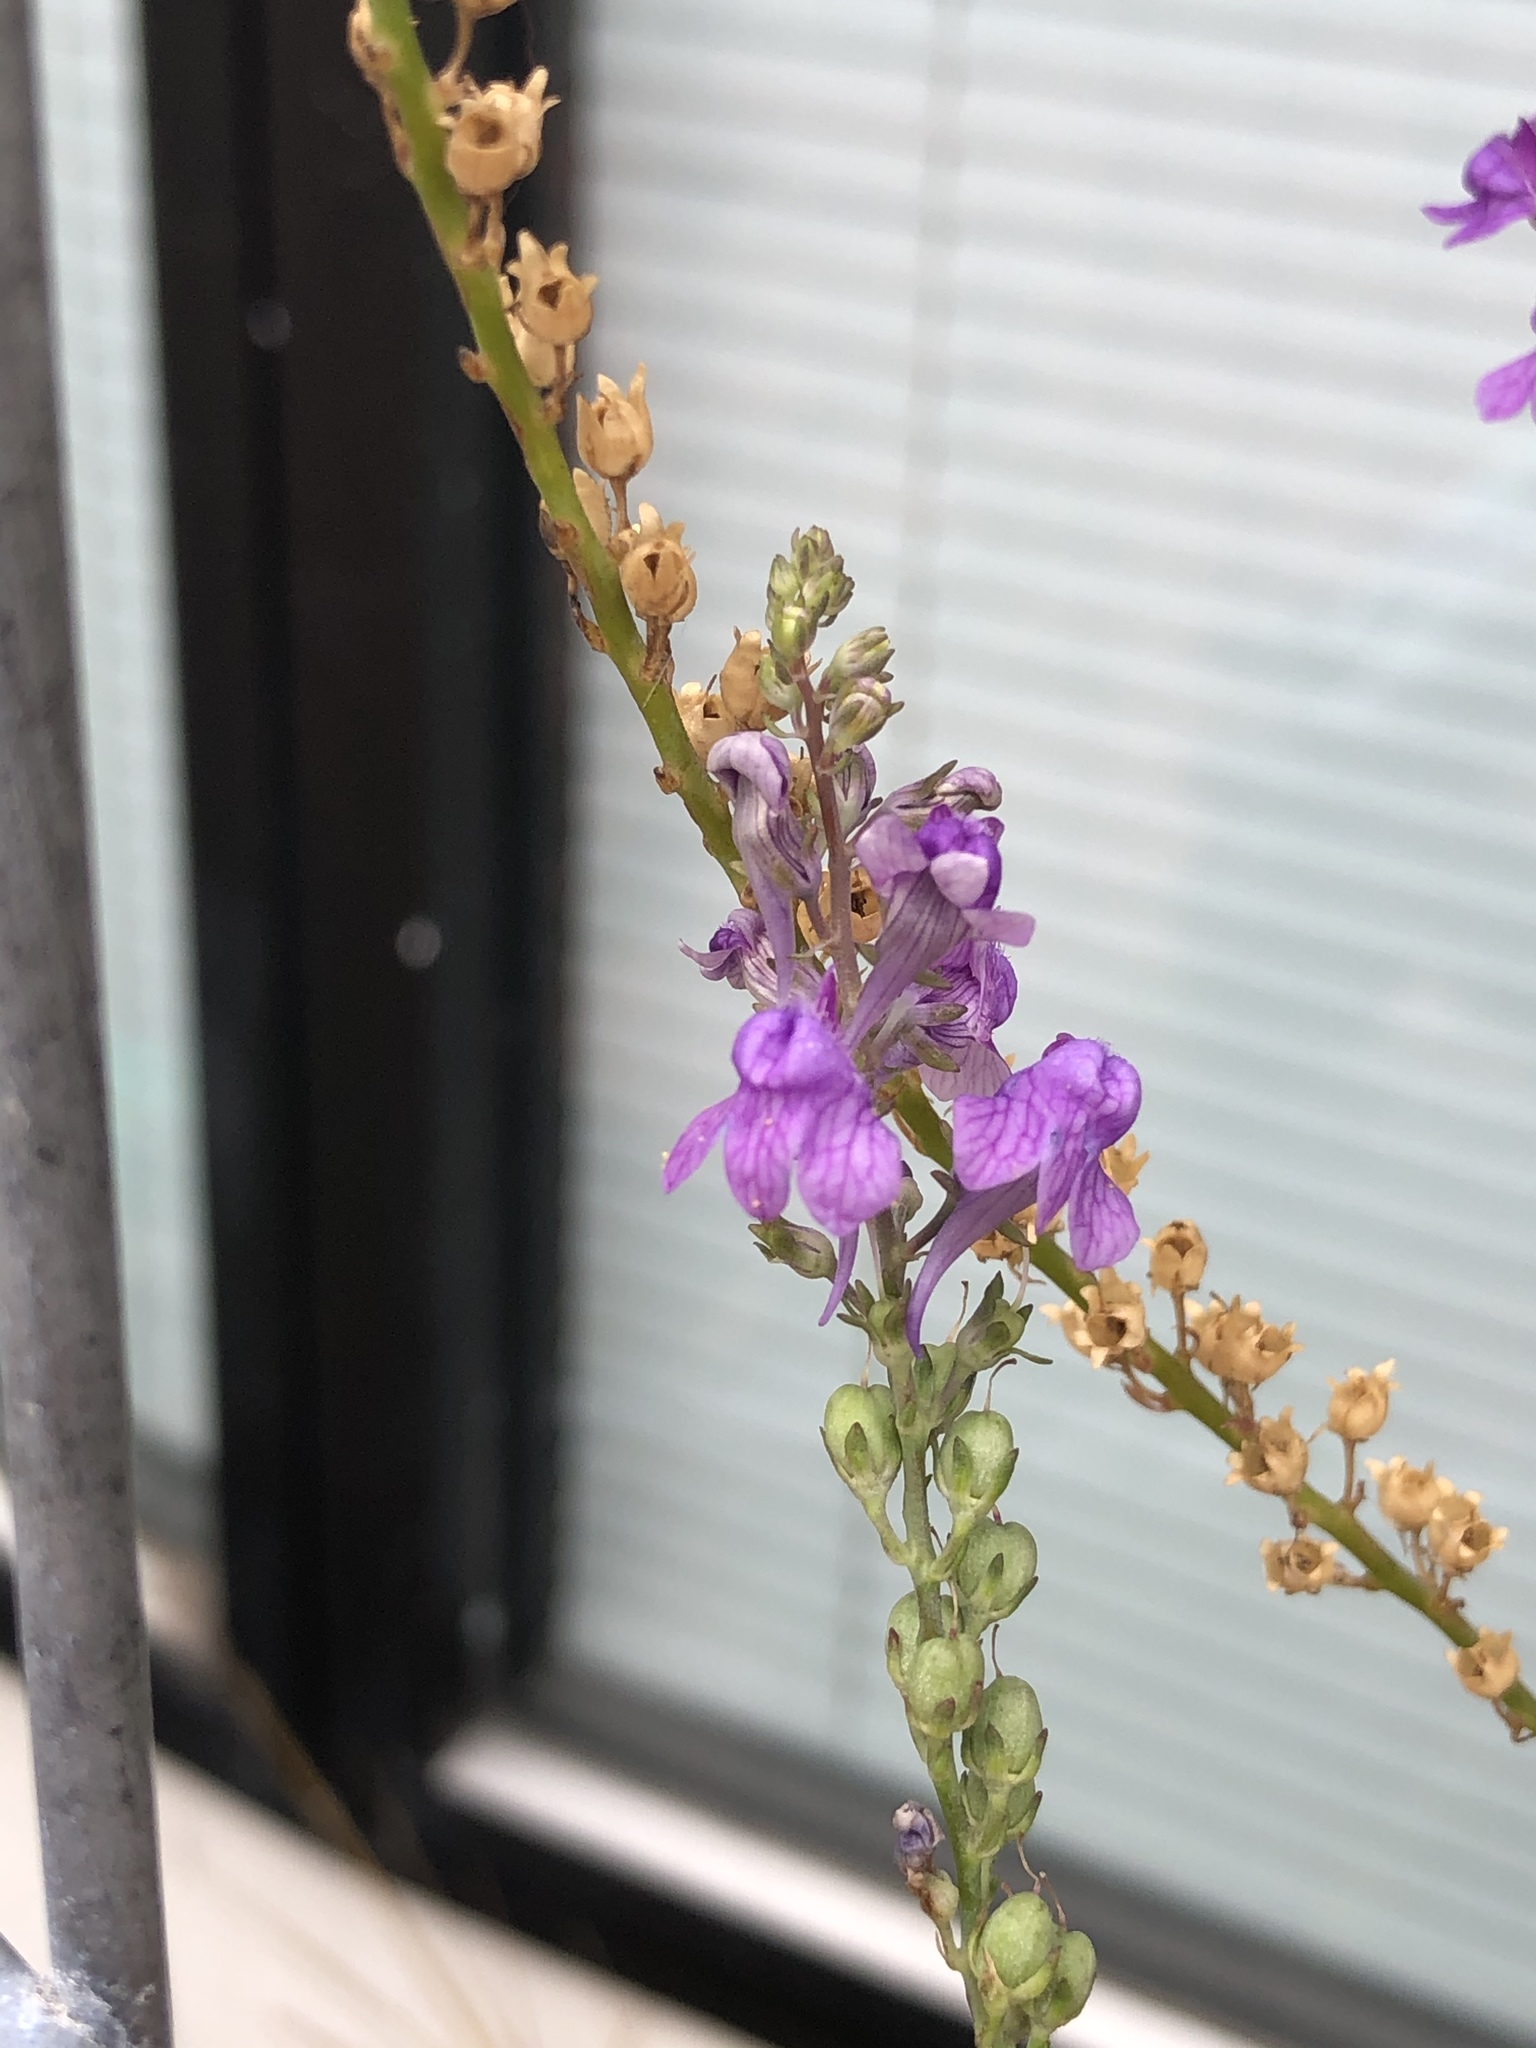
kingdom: Plantae
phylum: Tracheophyta
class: Magnoliopsida
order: Lamiales
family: Plantaginaceae
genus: Linaria
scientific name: Linaria purpurea
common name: Purple toadflax
